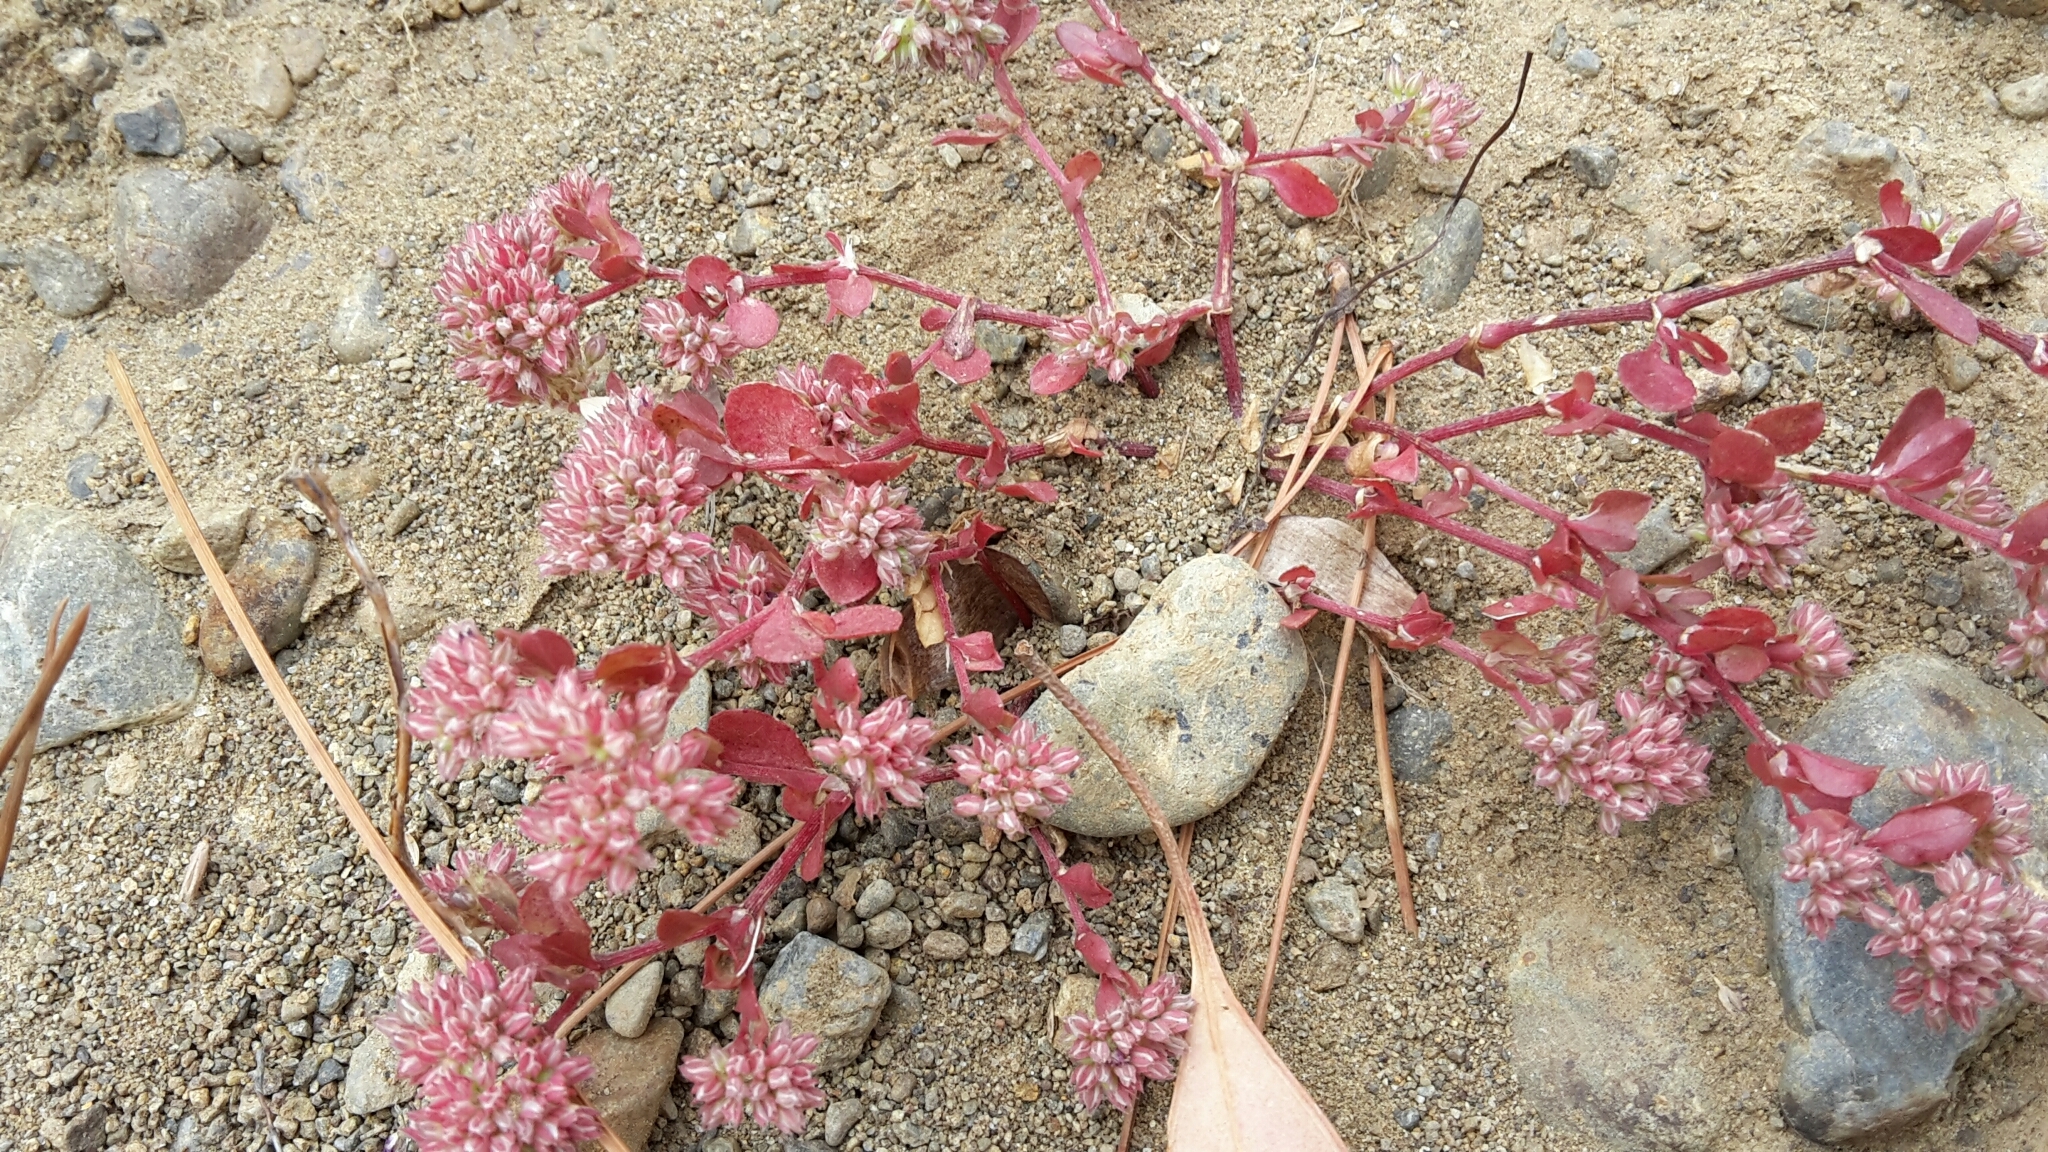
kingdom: Plantae
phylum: Tracheophyta
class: Magnoliopsida
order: Caryophyllales
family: Caryophyllaceae
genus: Polycarpon
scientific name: Polycarpon tetraphyllum
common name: Four-leaved all-seed
